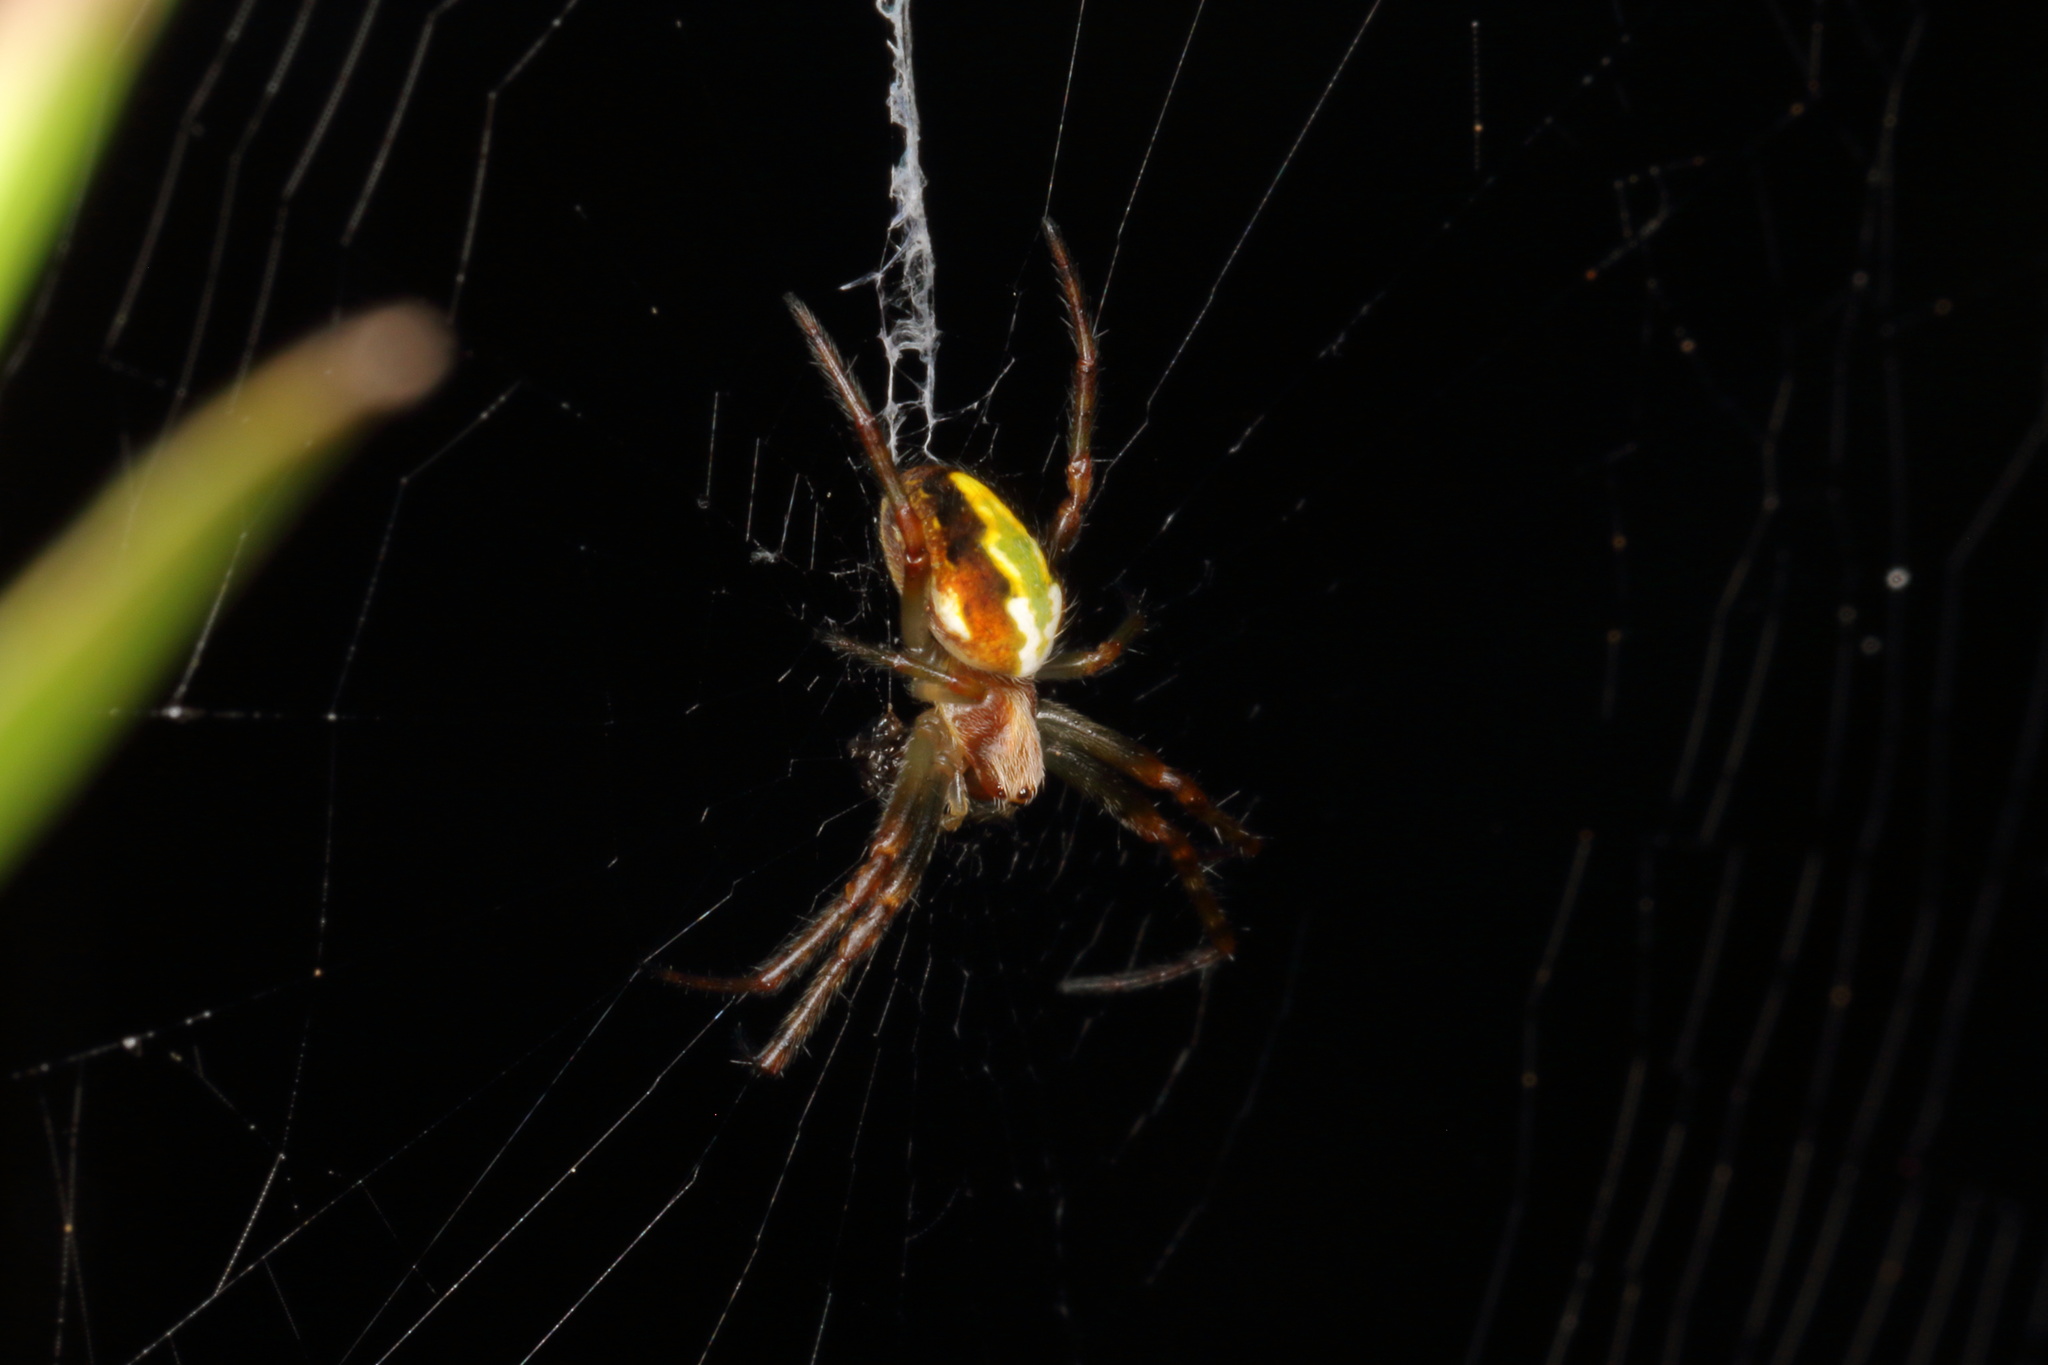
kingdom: Animalia
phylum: Arthropoda
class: Arachnida
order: Araneae
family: Araneidae
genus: Novaranea
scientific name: Novaranea queribunda
